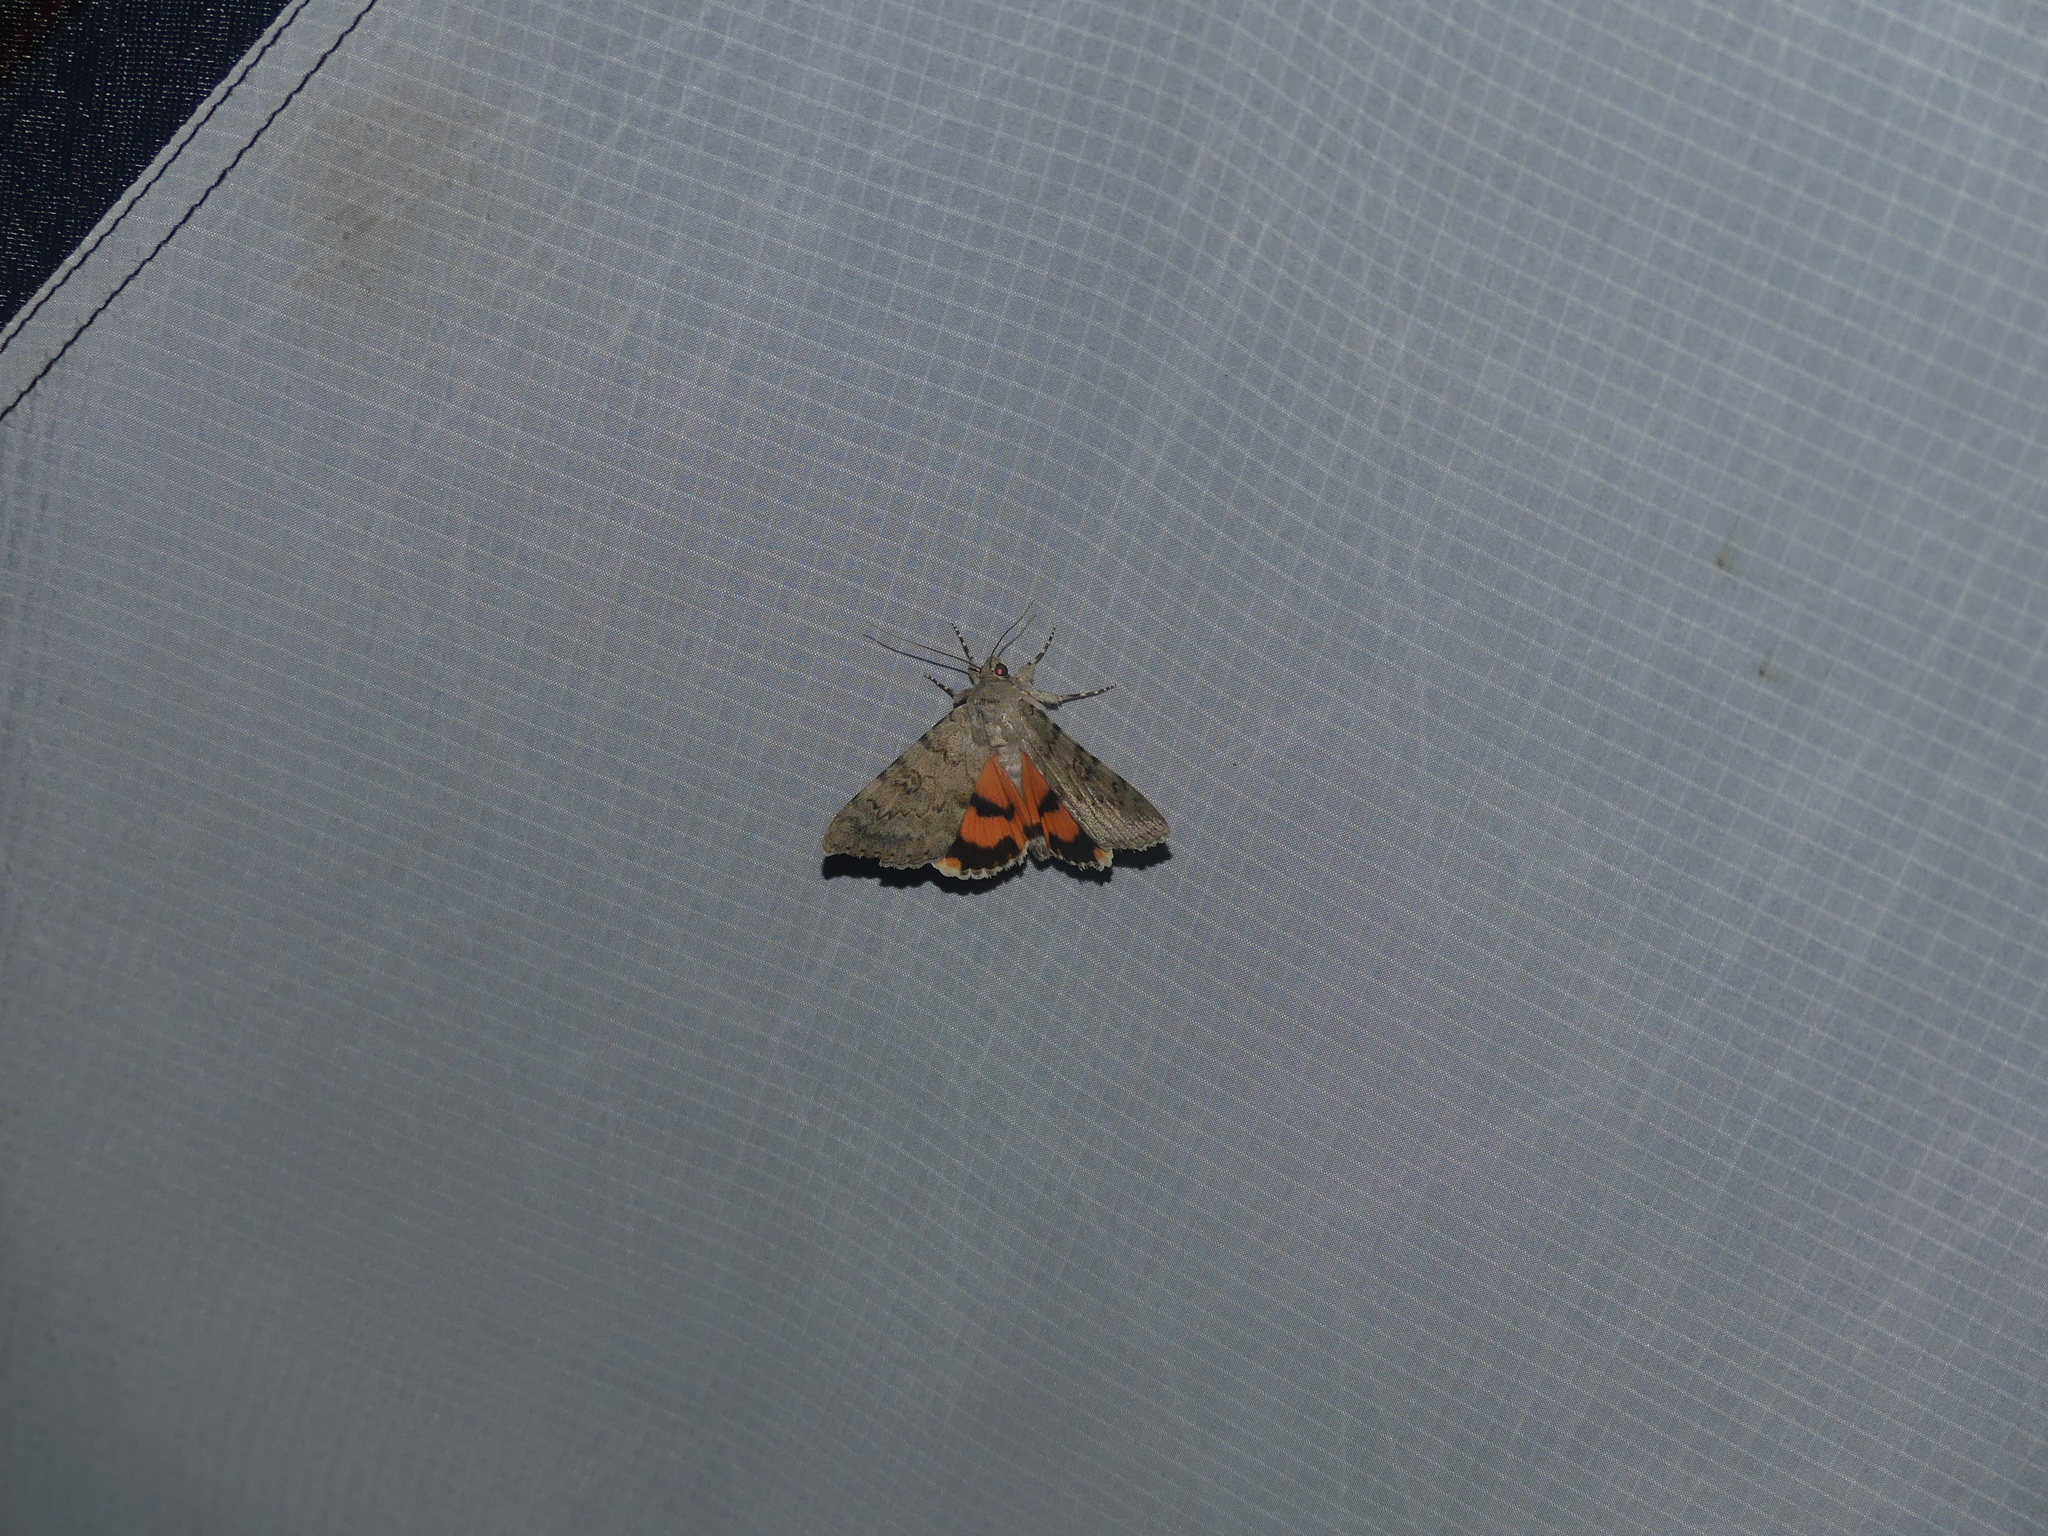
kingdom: Animalia
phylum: Arthropoda
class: Insecta
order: Lepidoptera
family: Erebidae
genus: Catocala
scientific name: Catocala puerpera
